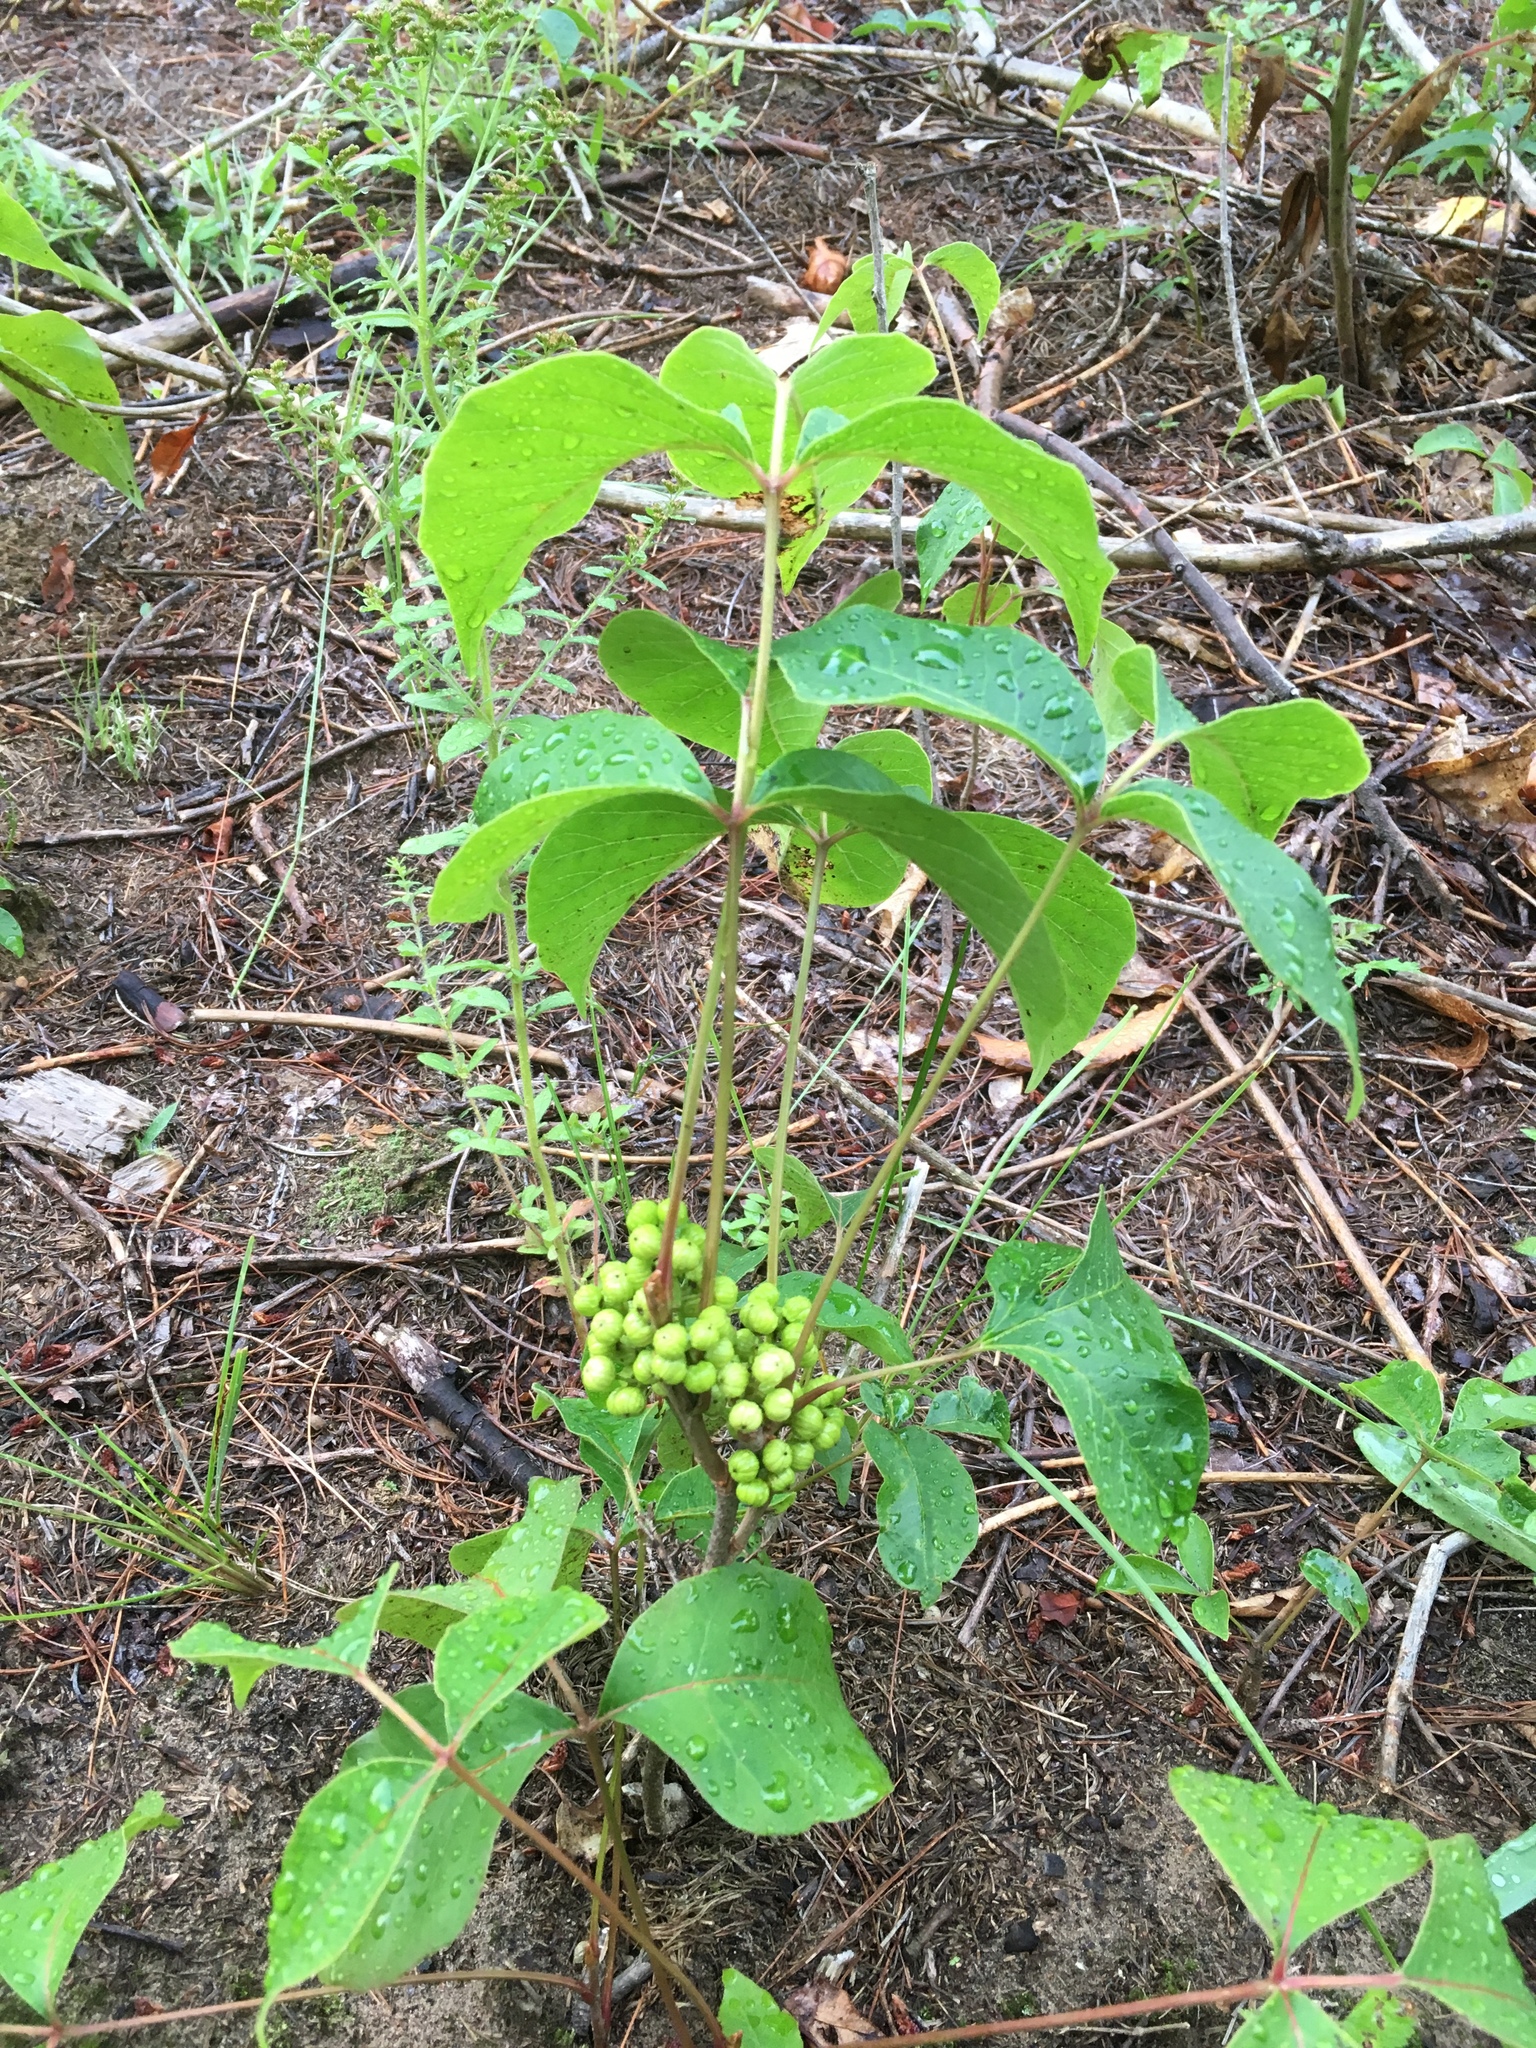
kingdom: Plantae
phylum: Tracheophyta
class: Magnoliopsida
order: Sapindales
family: Anacardiaceae
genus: Toxicodendron
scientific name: Toxicodendron rydbergii
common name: Rydberg's poison-ivy
